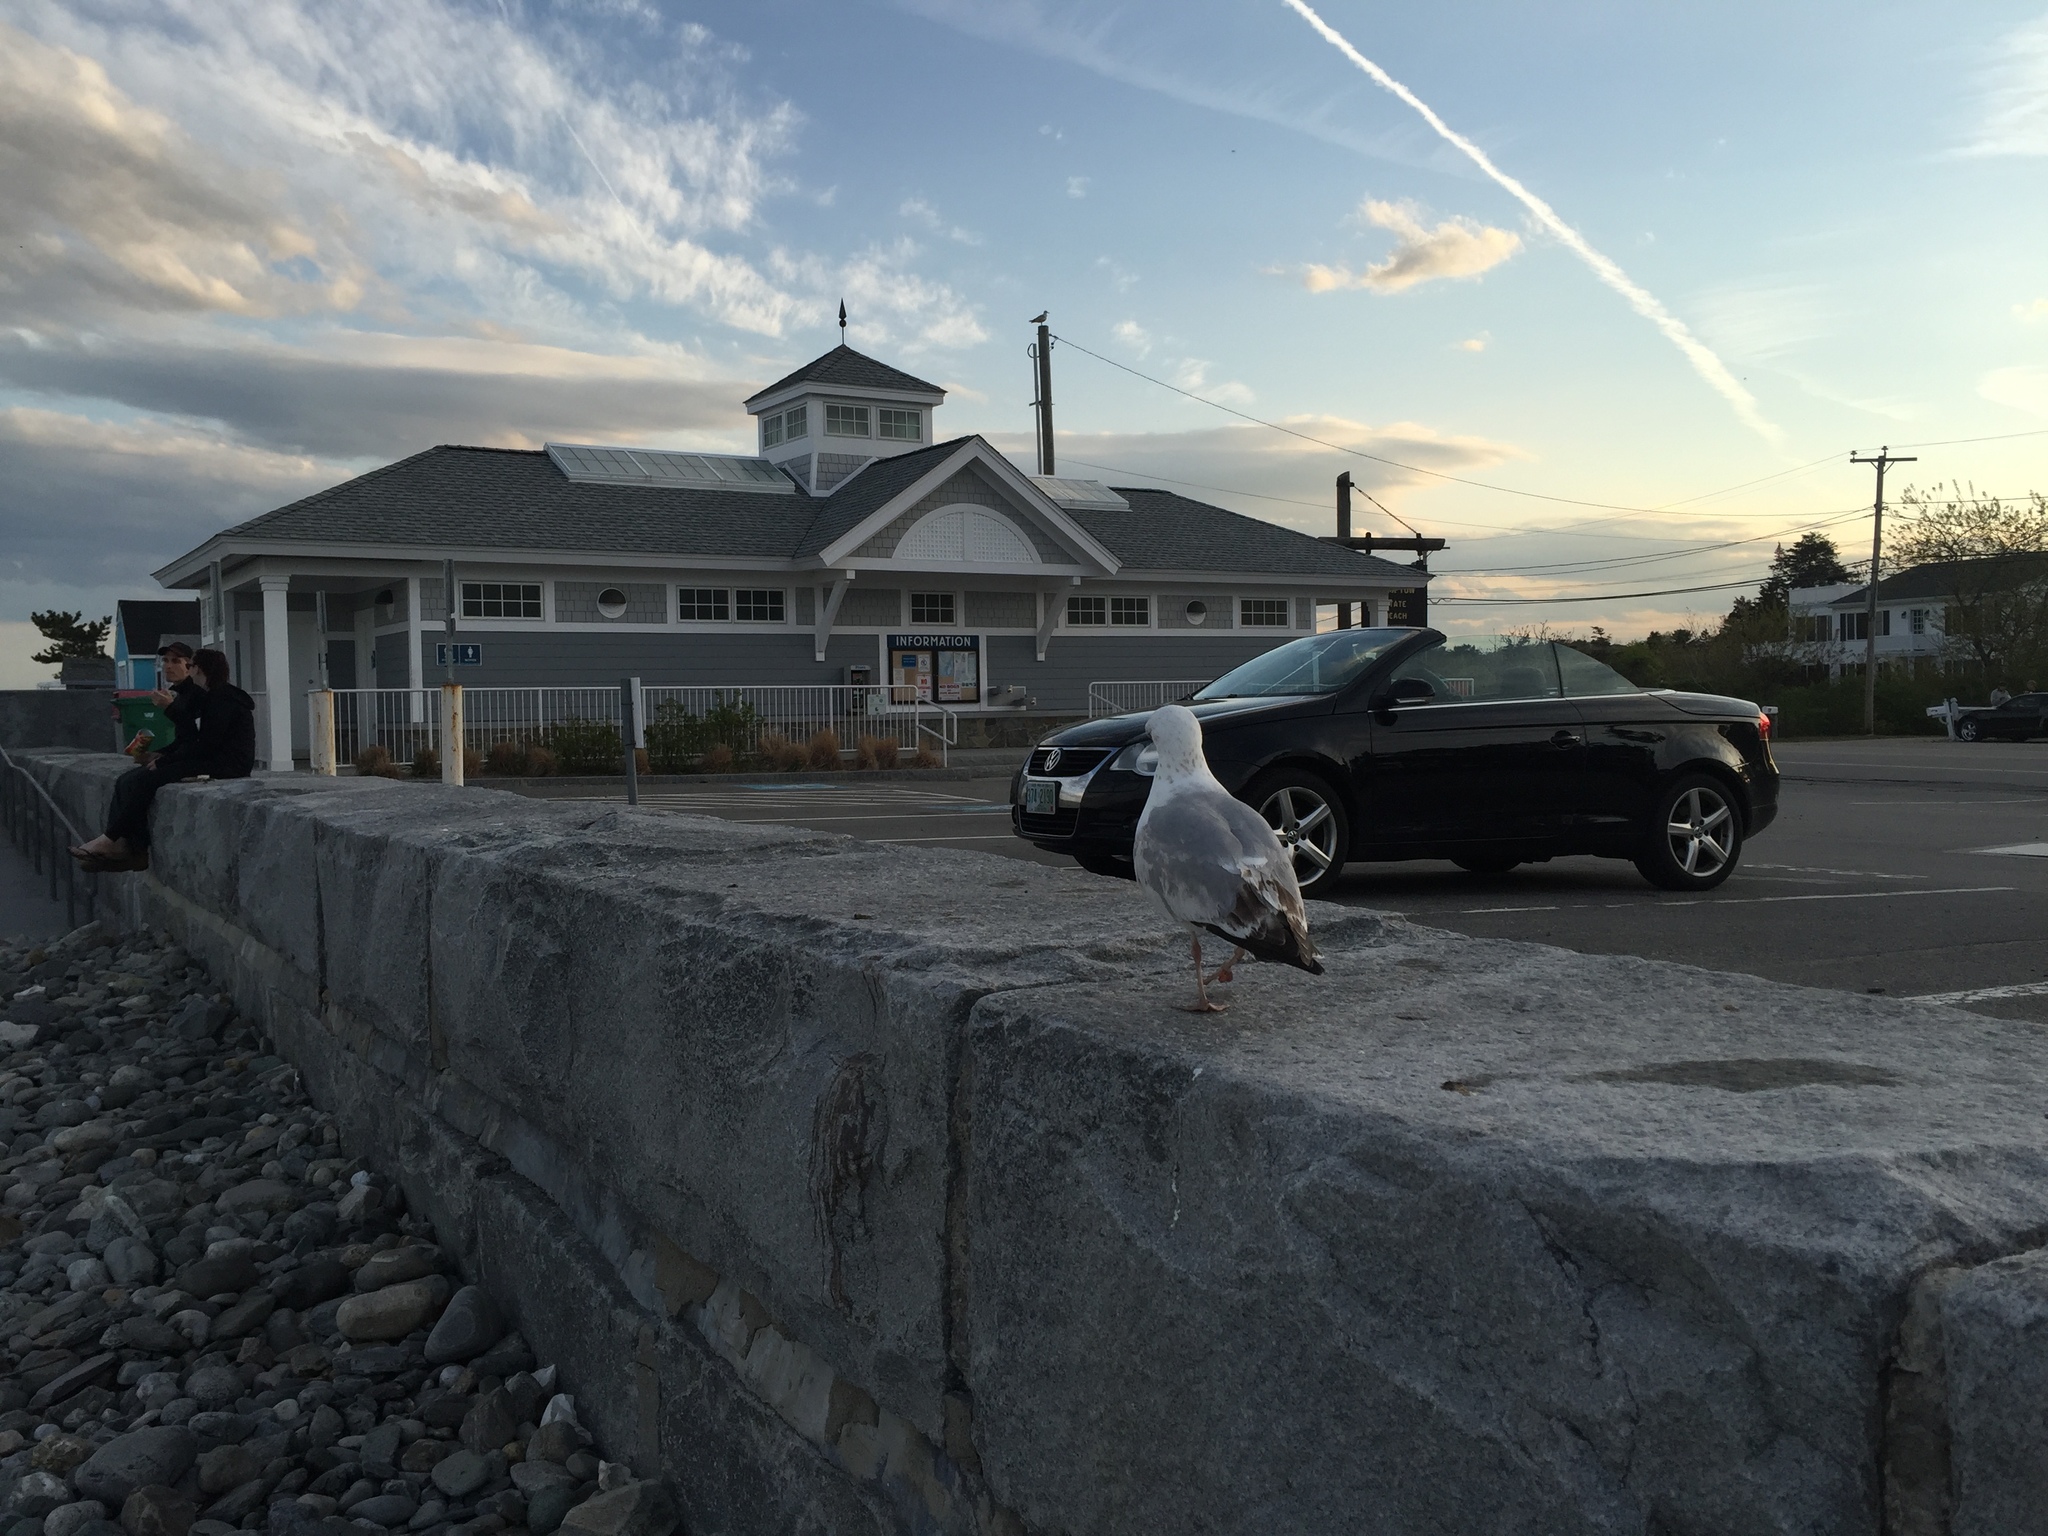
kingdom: Animalia
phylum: Chordata
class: Aves
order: Charadriiformes
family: Laridae
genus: Larus
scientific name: Larus delawarensis
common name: Ring-billed gull
